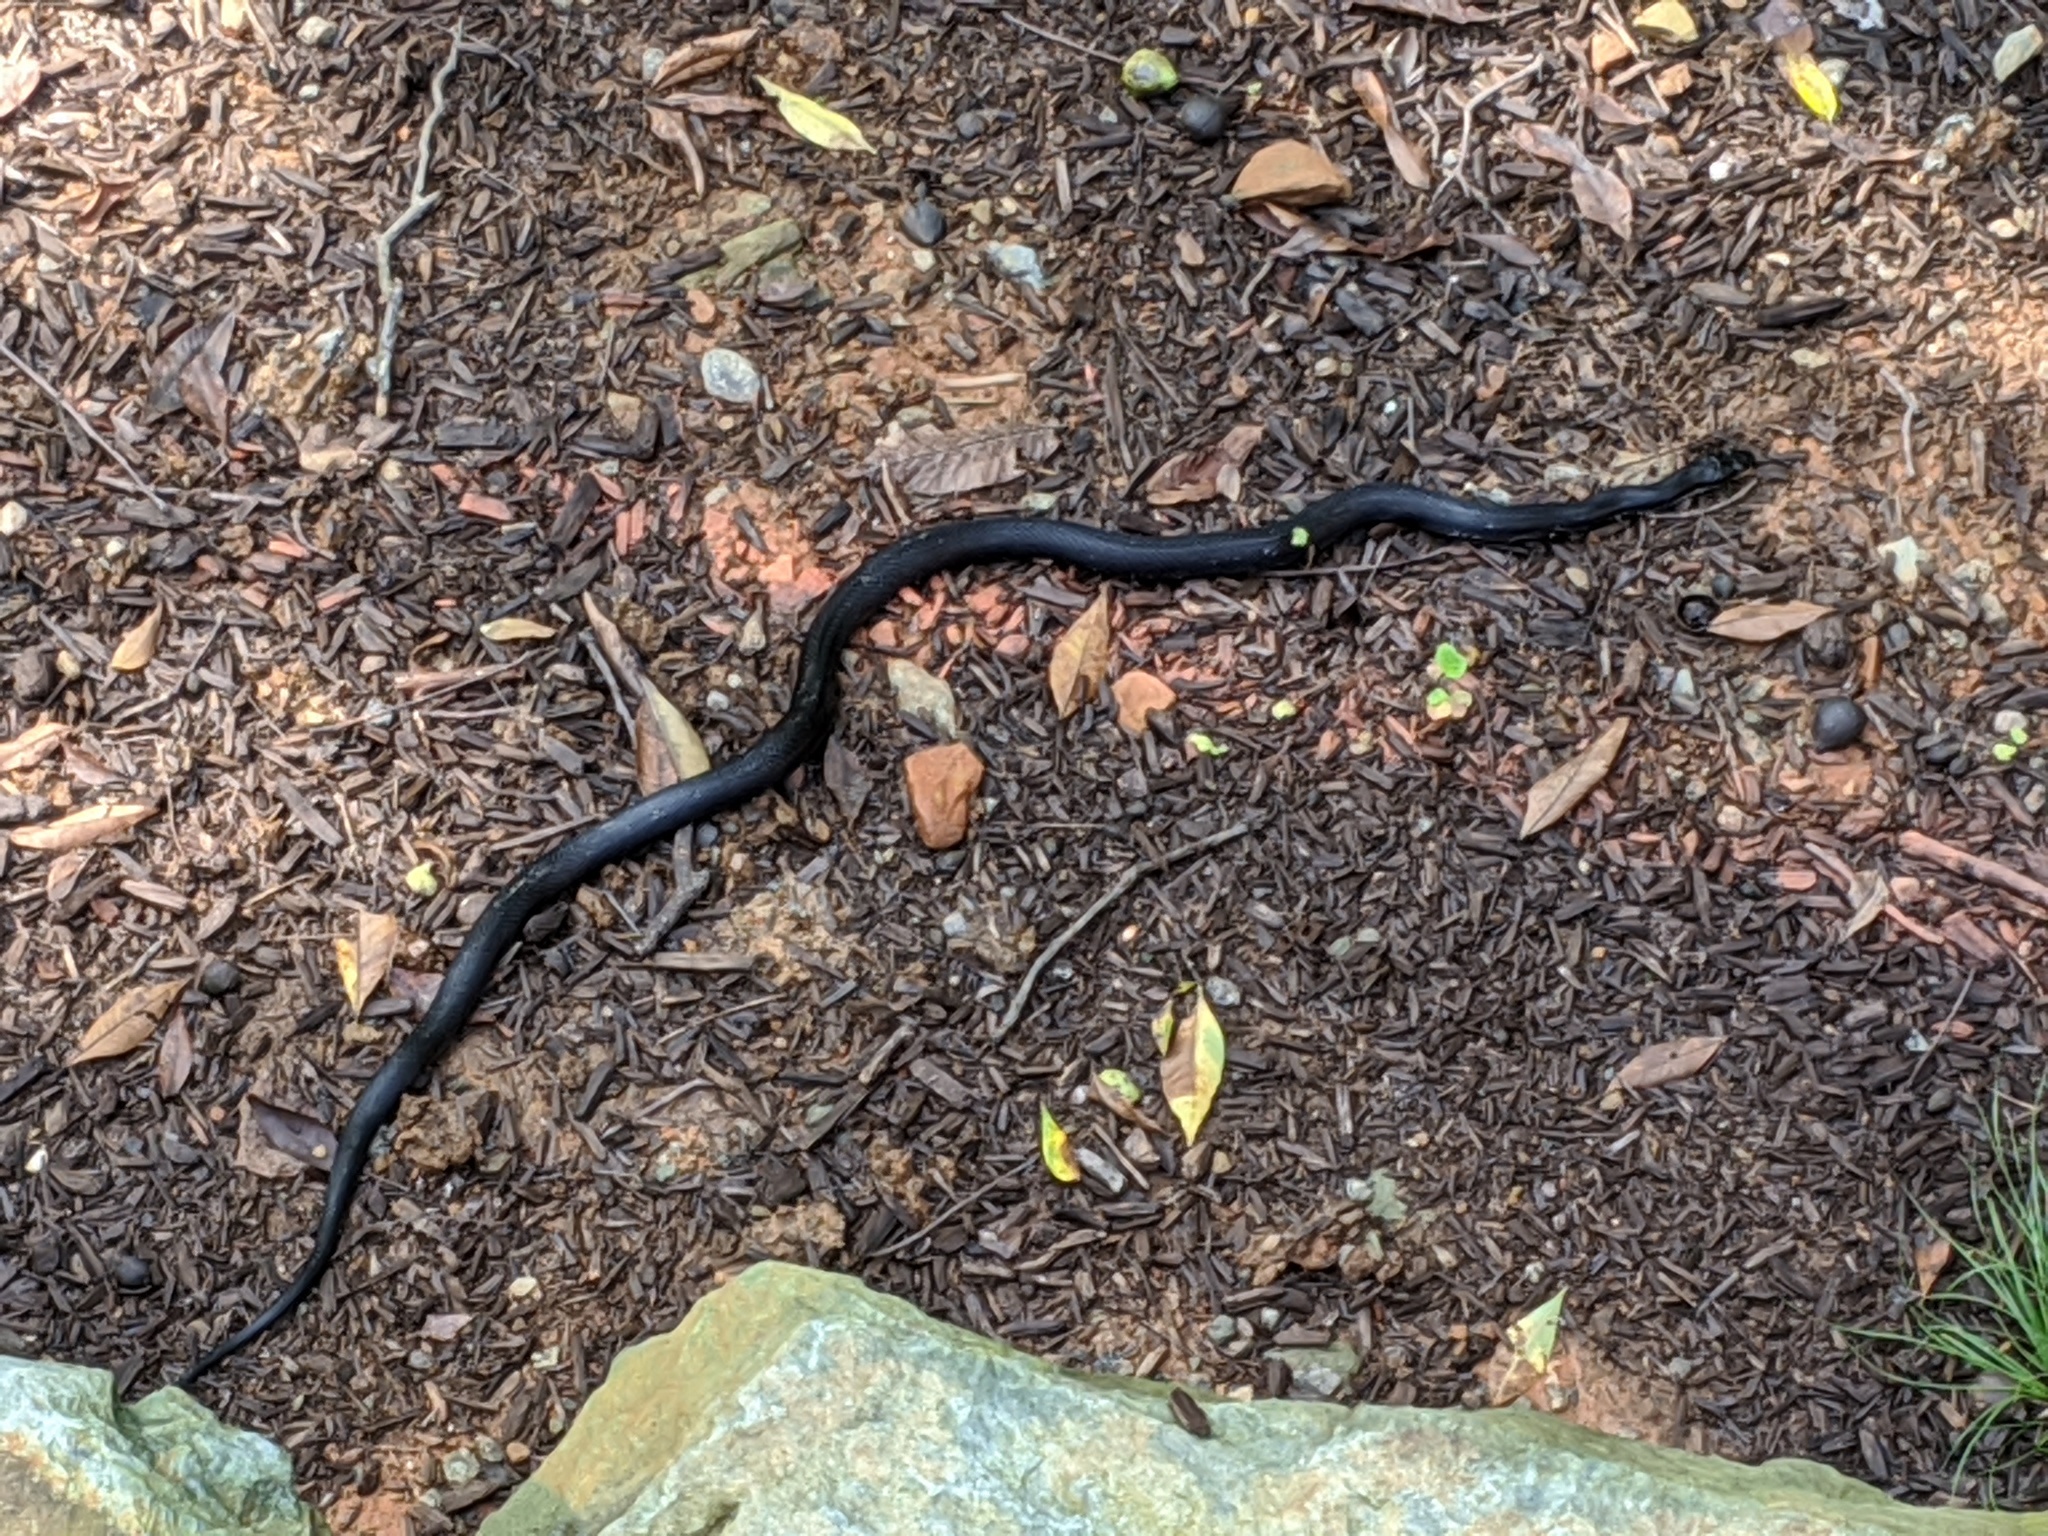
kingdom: Animalia
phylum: Chordata
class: Squamata
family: Colubridae
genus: Pantherophis
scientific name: Pantherophis alleghaniensis
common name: Eastern rat snake
